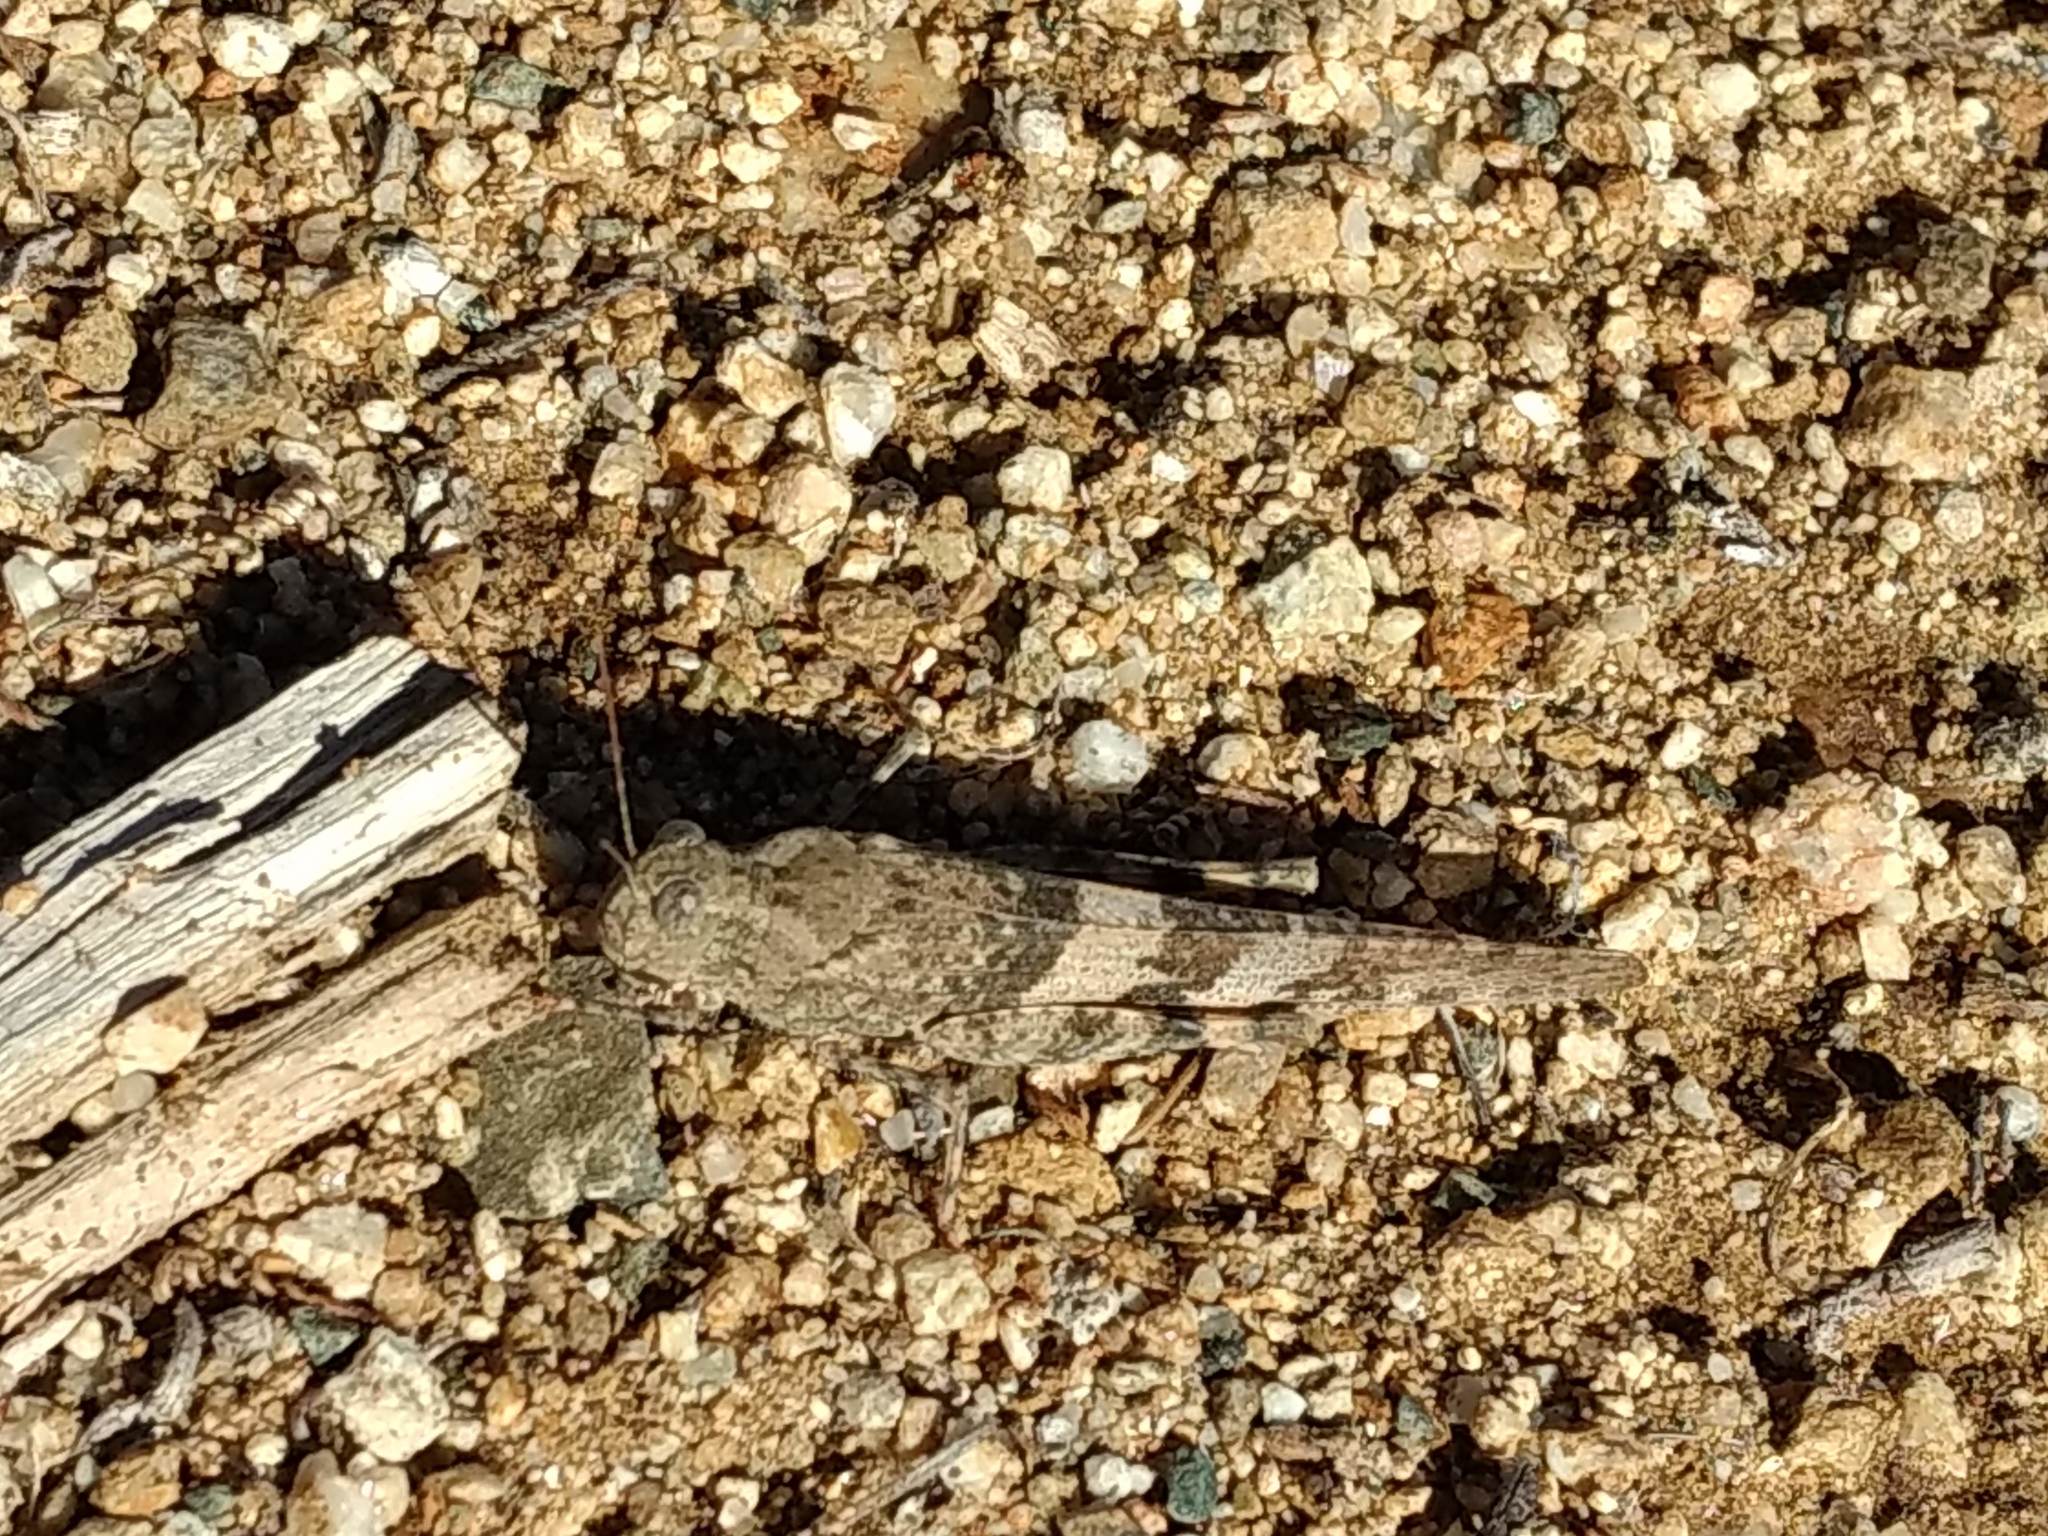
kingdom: Animalia
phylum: Arthropoda
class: Insecta
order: Orthoptera
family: Acrididae
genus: Trimerotropis
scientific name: Trimerotropis pallidipennis
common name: Pallid-winged grasshopper
